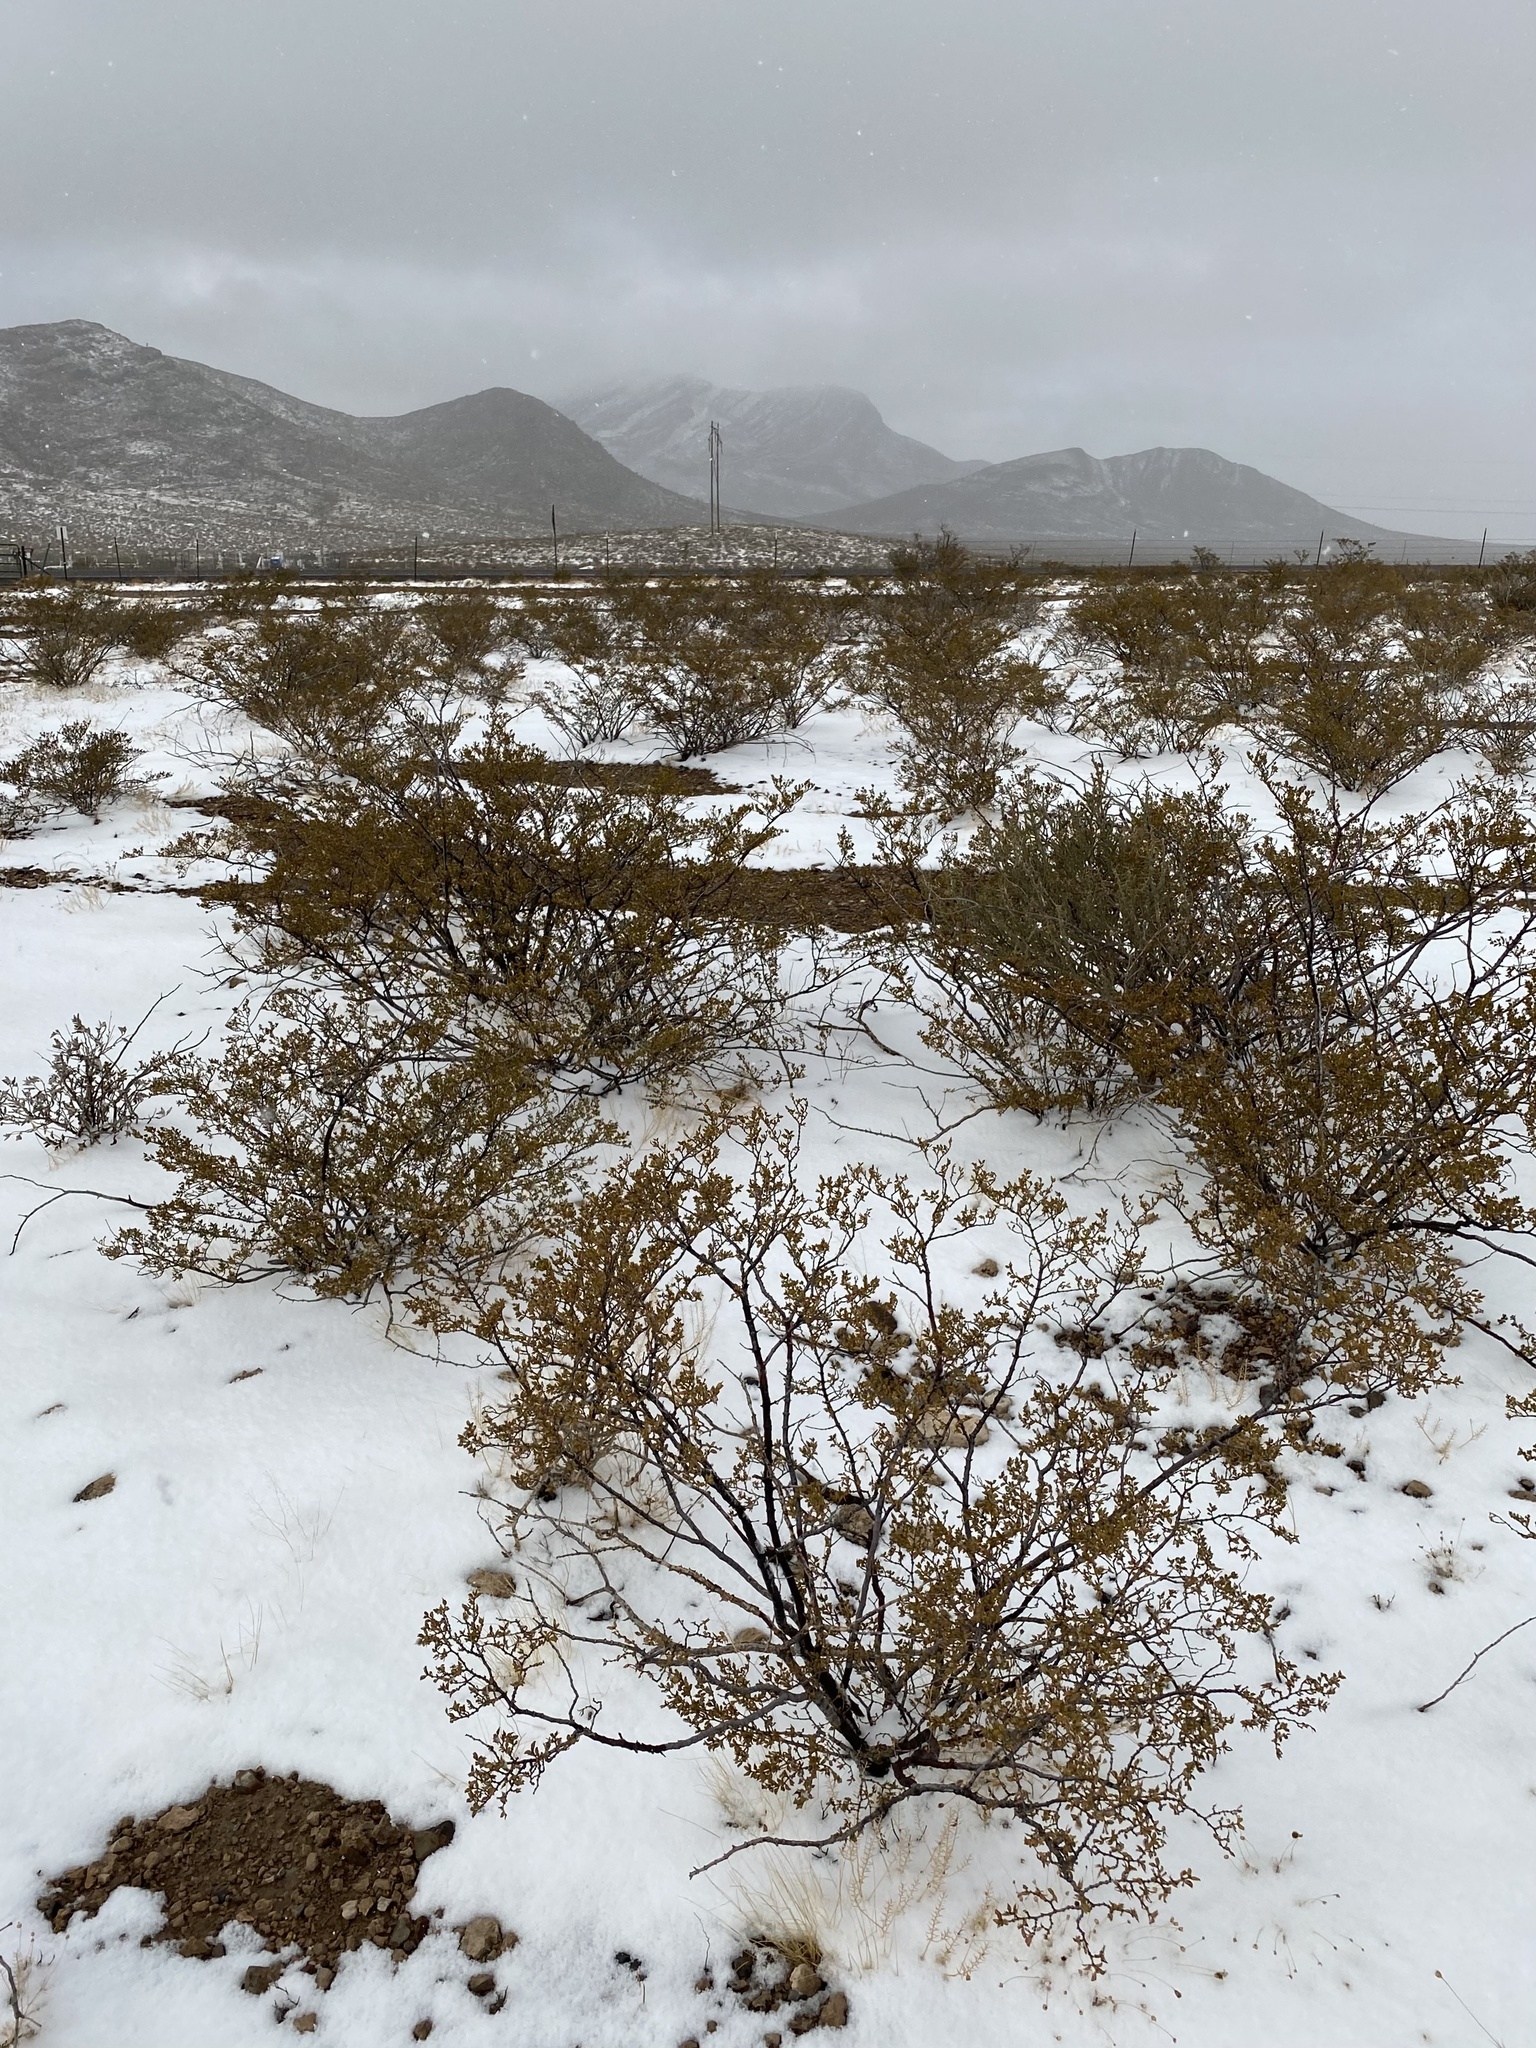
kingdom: Plantae
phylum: Tracheophyta
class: Magnoliopsida
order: Zygophyllales
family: Zygophyllaceae
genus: Larrea
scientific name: Larrea tridentata
